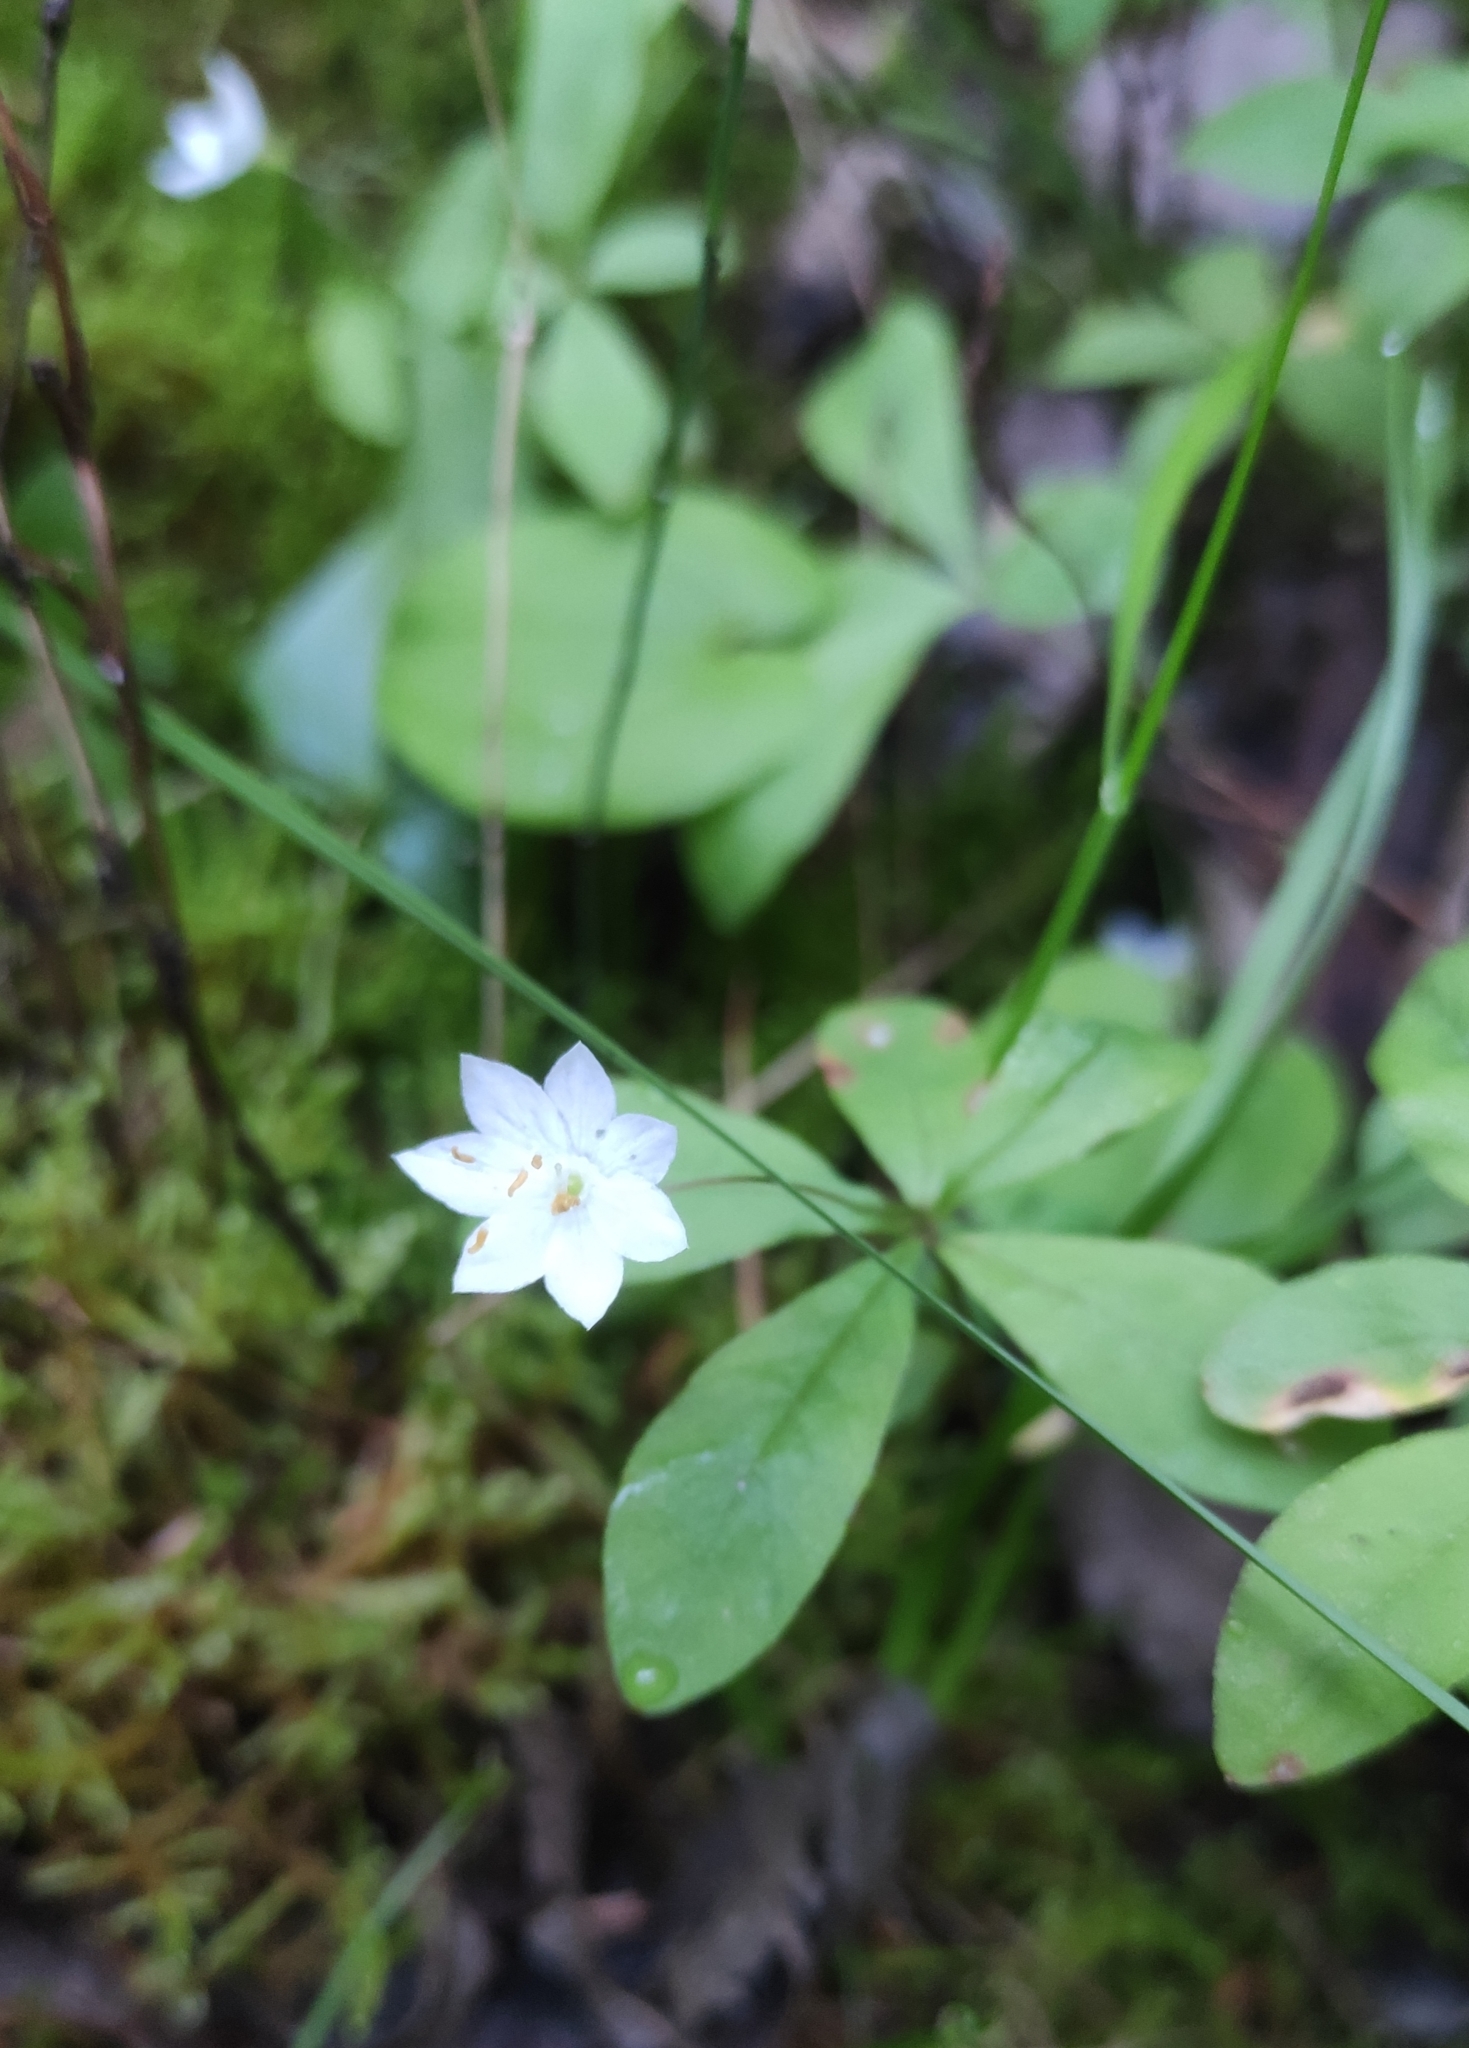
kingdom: Plantae
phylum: Tracheophyta
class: Magnoliopsida
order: Ericales
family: Primulaceae
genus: Lysimachia
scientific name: Lysimachia europaea
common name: Arctic starflower
